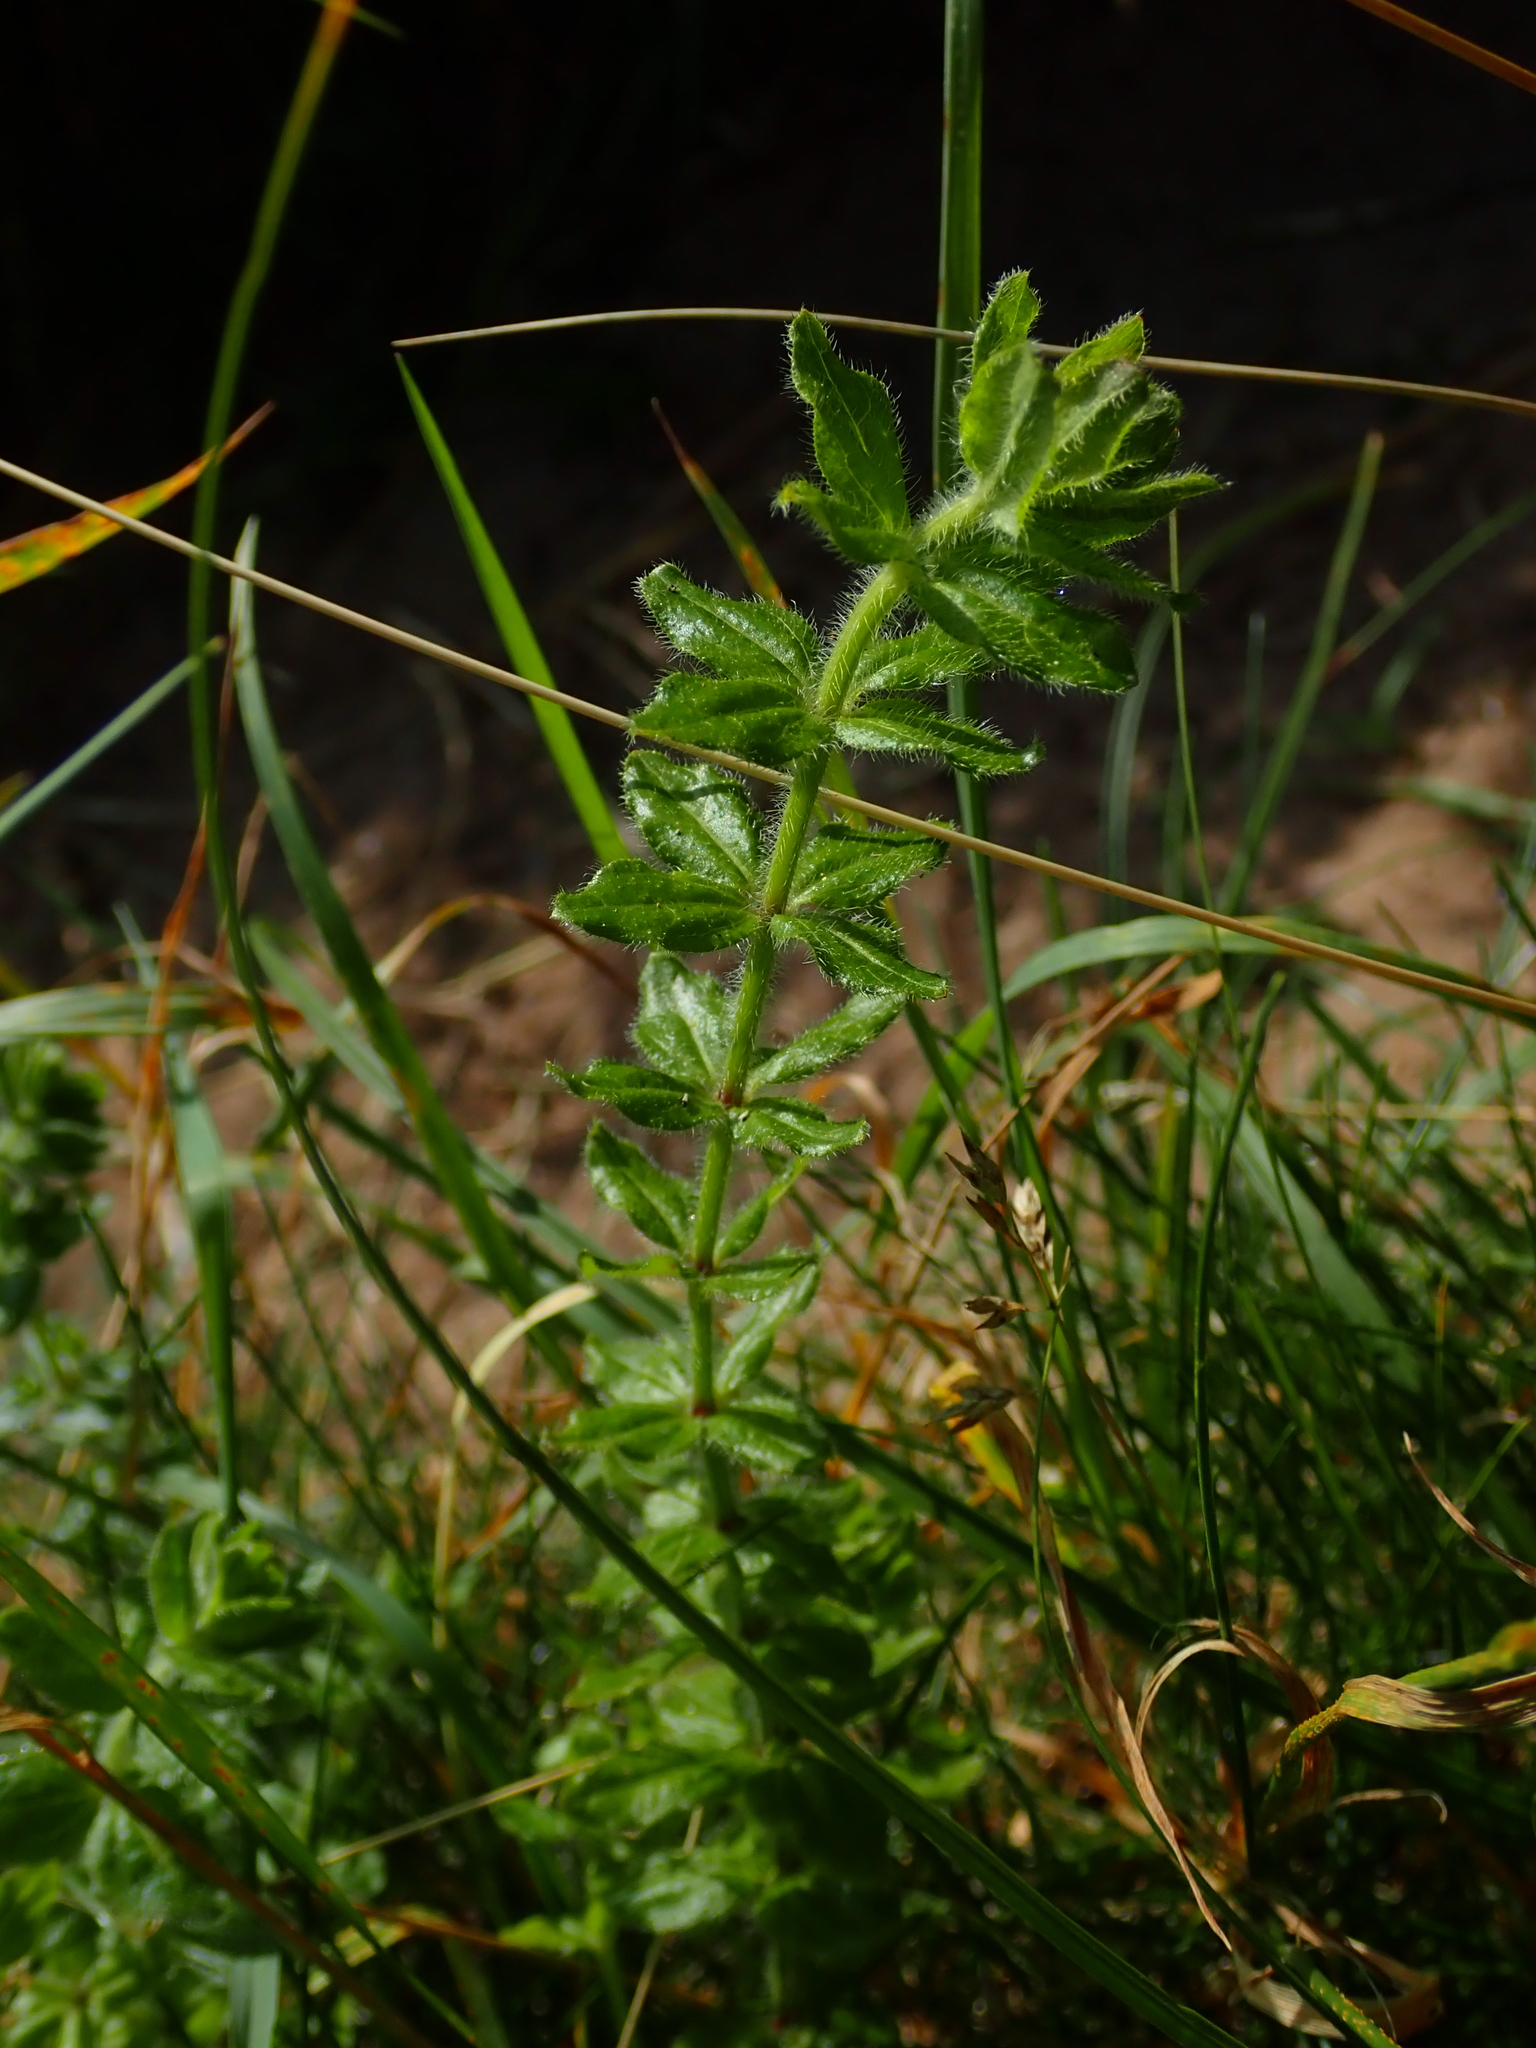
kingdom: Plantae
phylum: Tracheophyta
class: Magnoliopsida
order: Gentianales
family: Rubiaceae
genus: Cruciata
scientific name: Cruciata laevipes
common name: Crosswort
